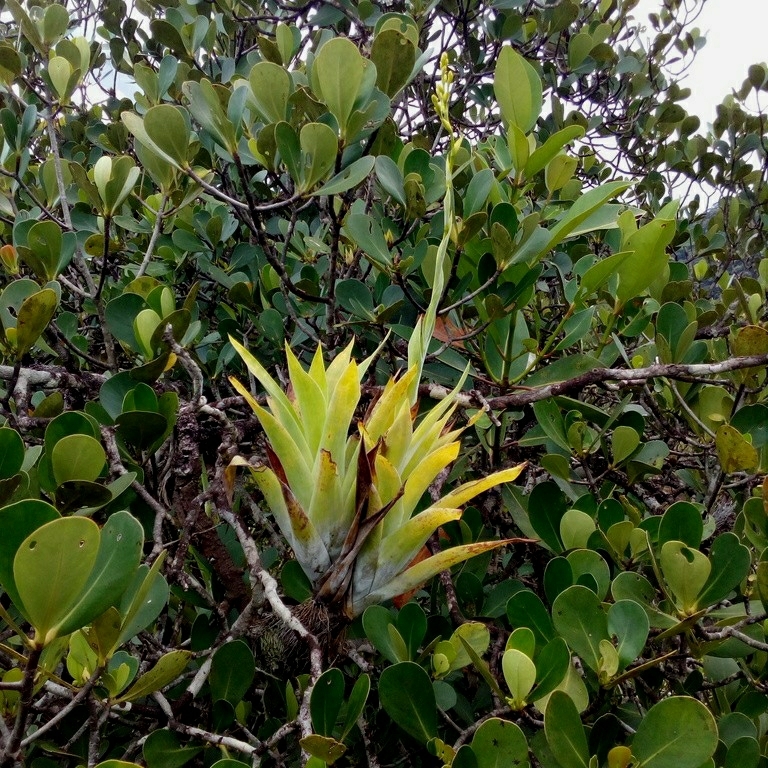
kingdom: Plantae
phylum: Tracheophyta
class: Liliopsida
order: Poales
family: Bromeliaceae
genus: Catopsis
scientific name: Catopsis berteroniana
